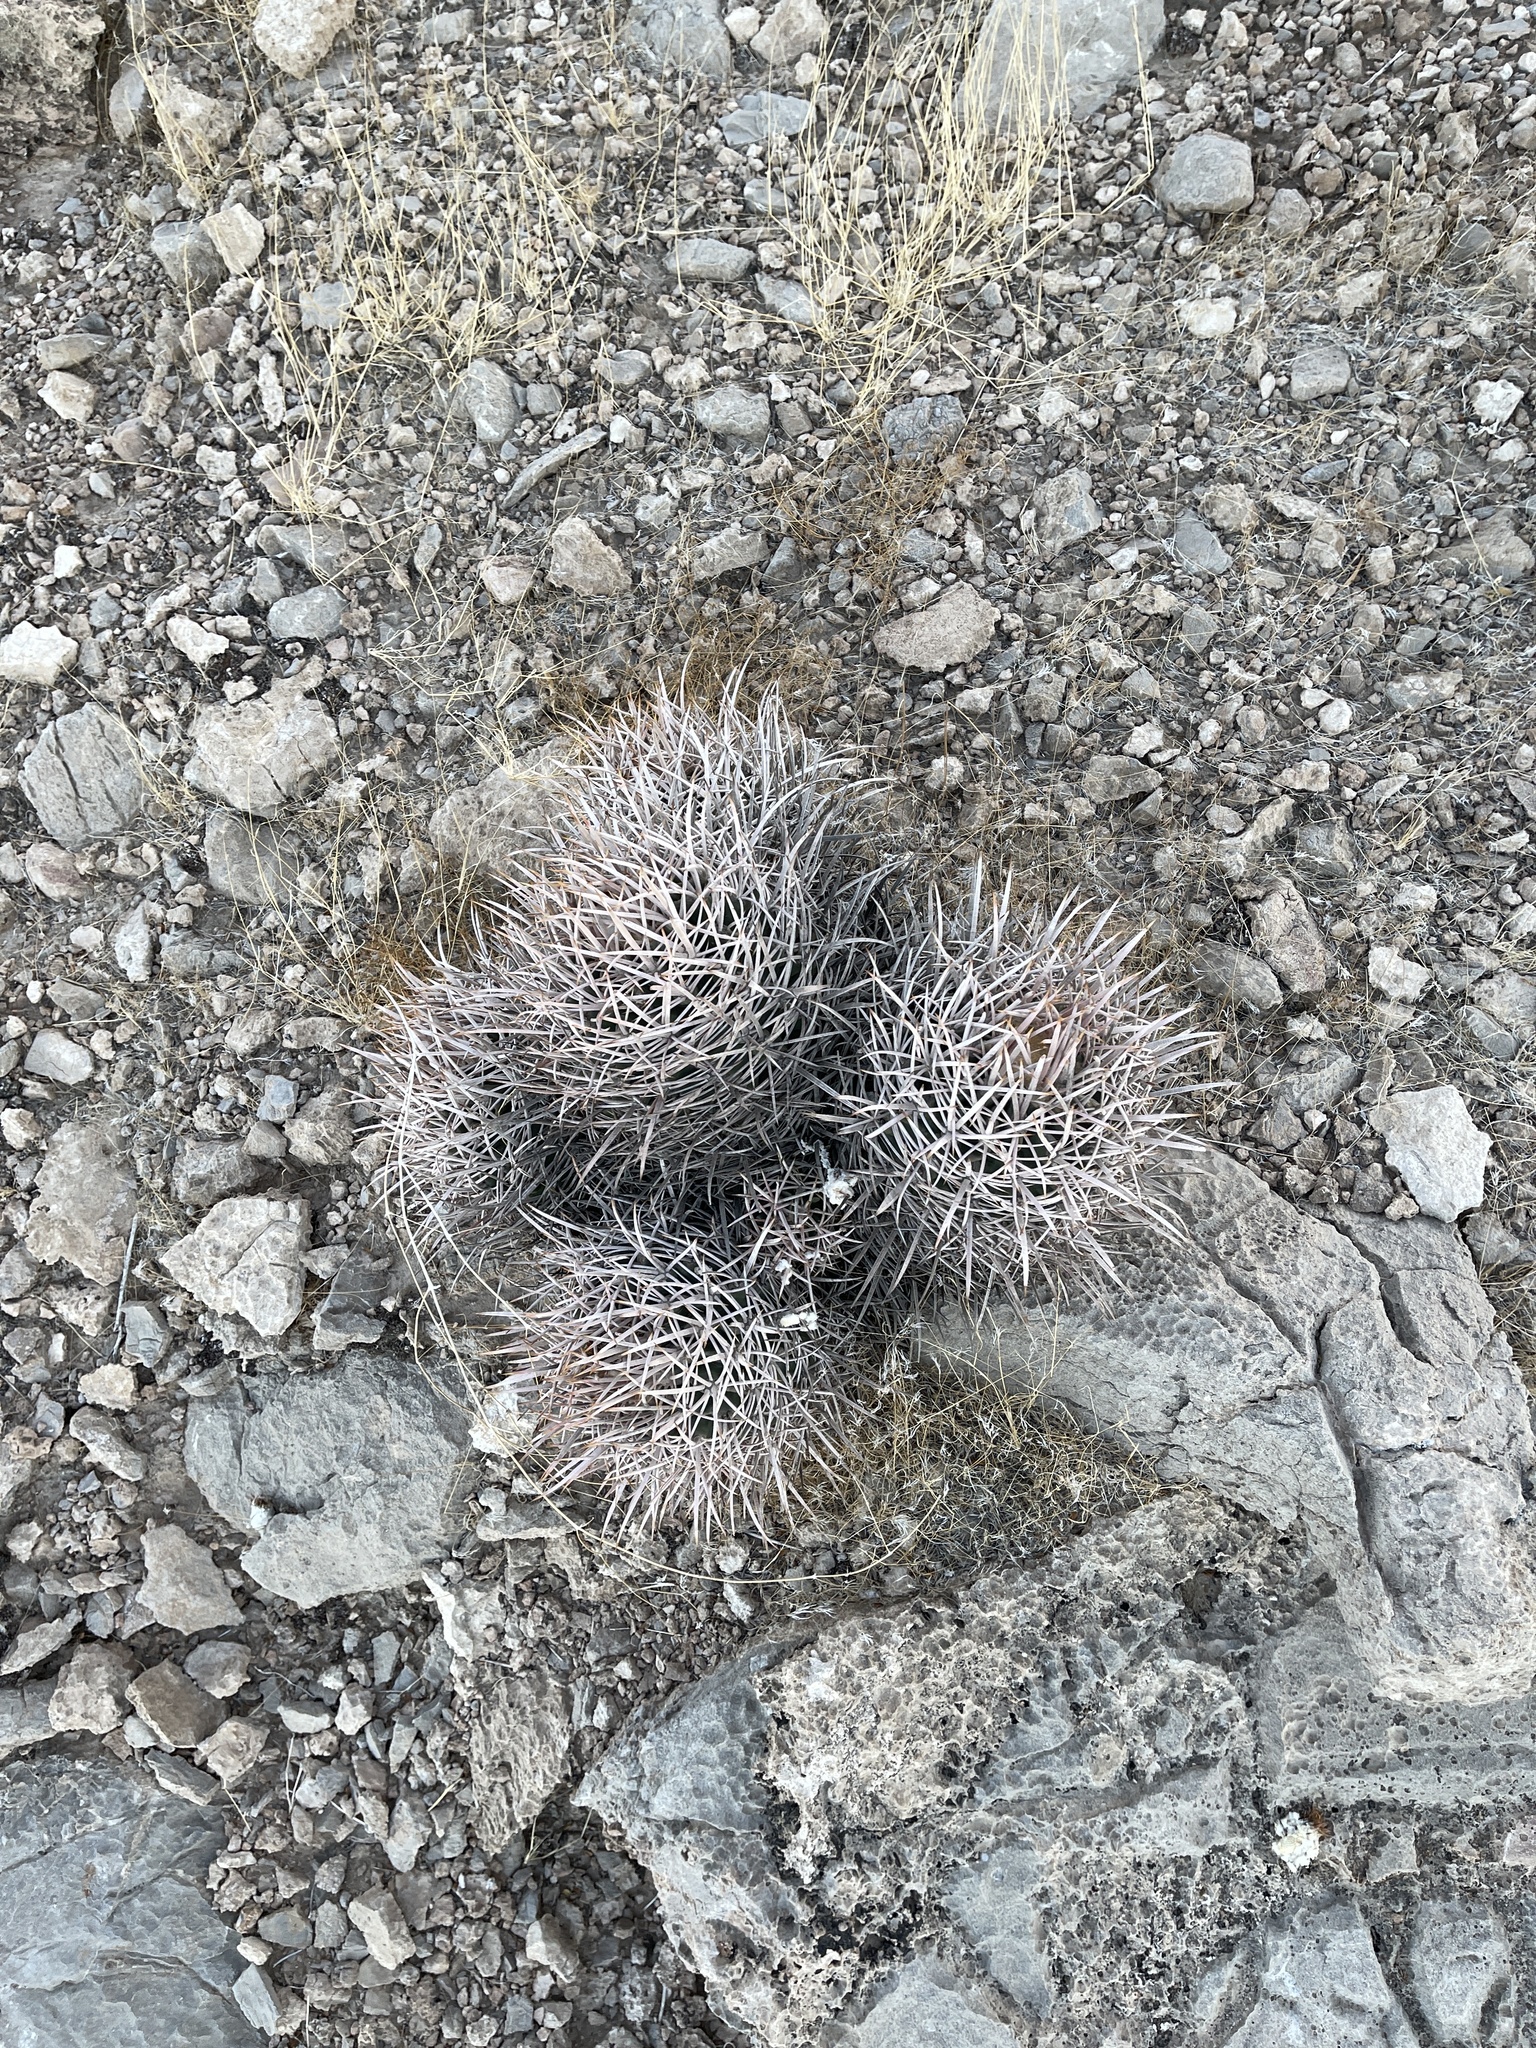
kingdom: Plantae
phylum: Tracheophyta
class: Magnoliopsida
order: Caryophyllales
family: Cactaceae
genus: Echinocactus
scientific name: Echinocactus polycephalus
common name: Cottontop cactus
